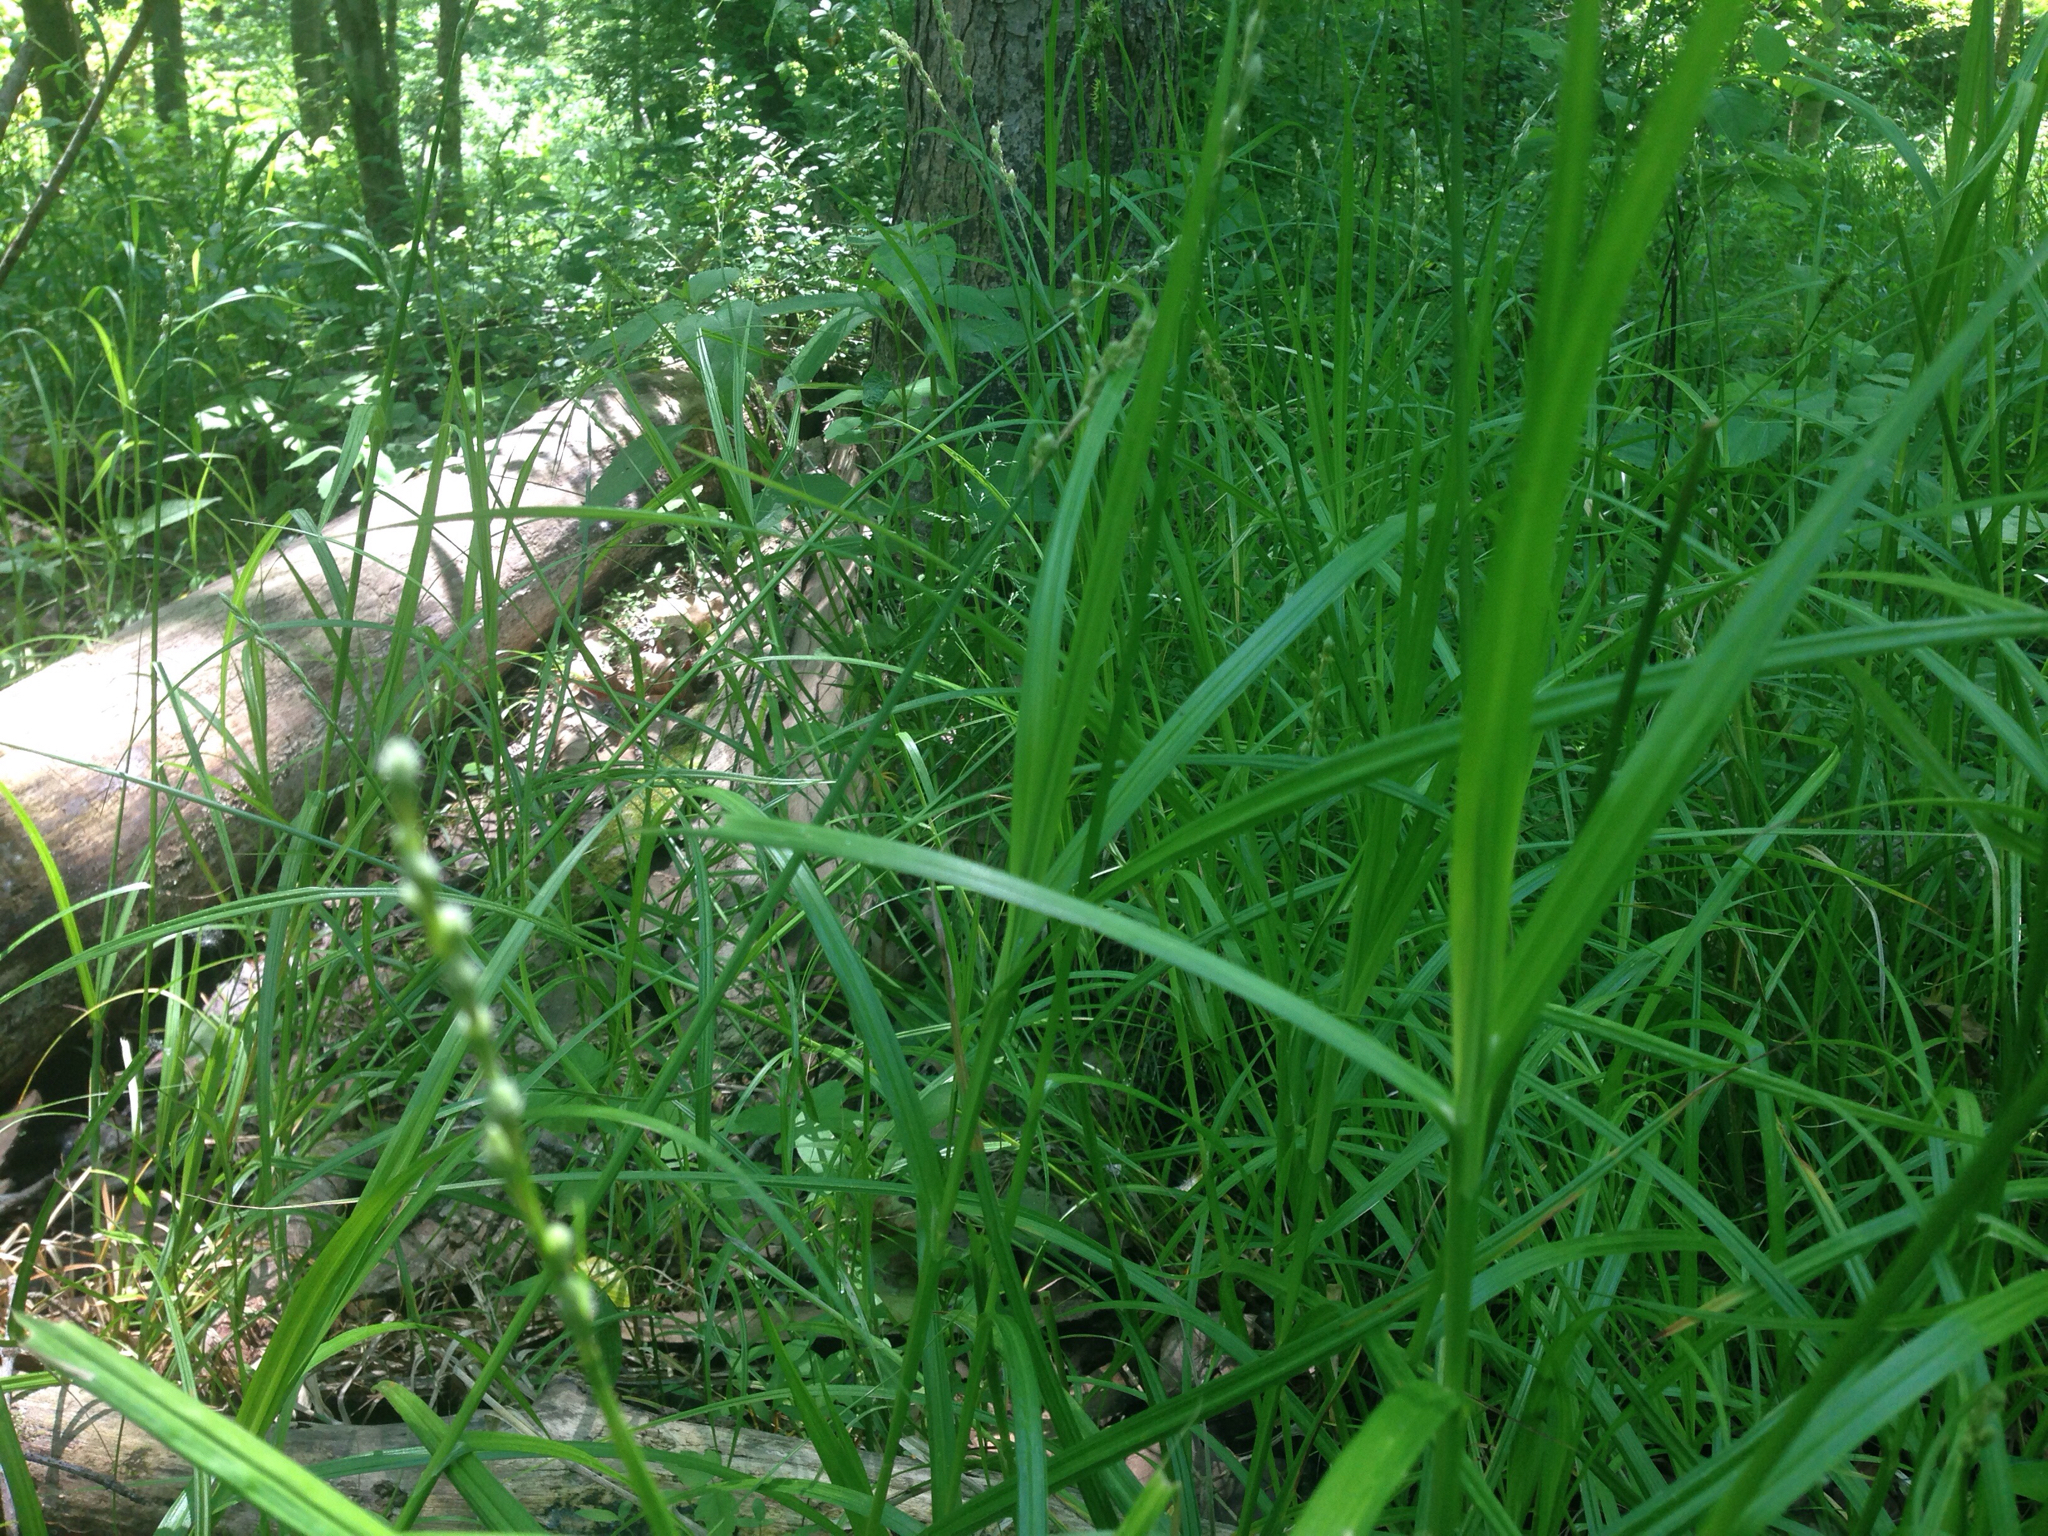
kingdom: Plantae
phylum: Tracheophyta
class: Liliopsida
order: Poales
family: Cyperaceae
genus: Carex
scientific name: Carex tribuloides
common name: Blunt broom sedge
